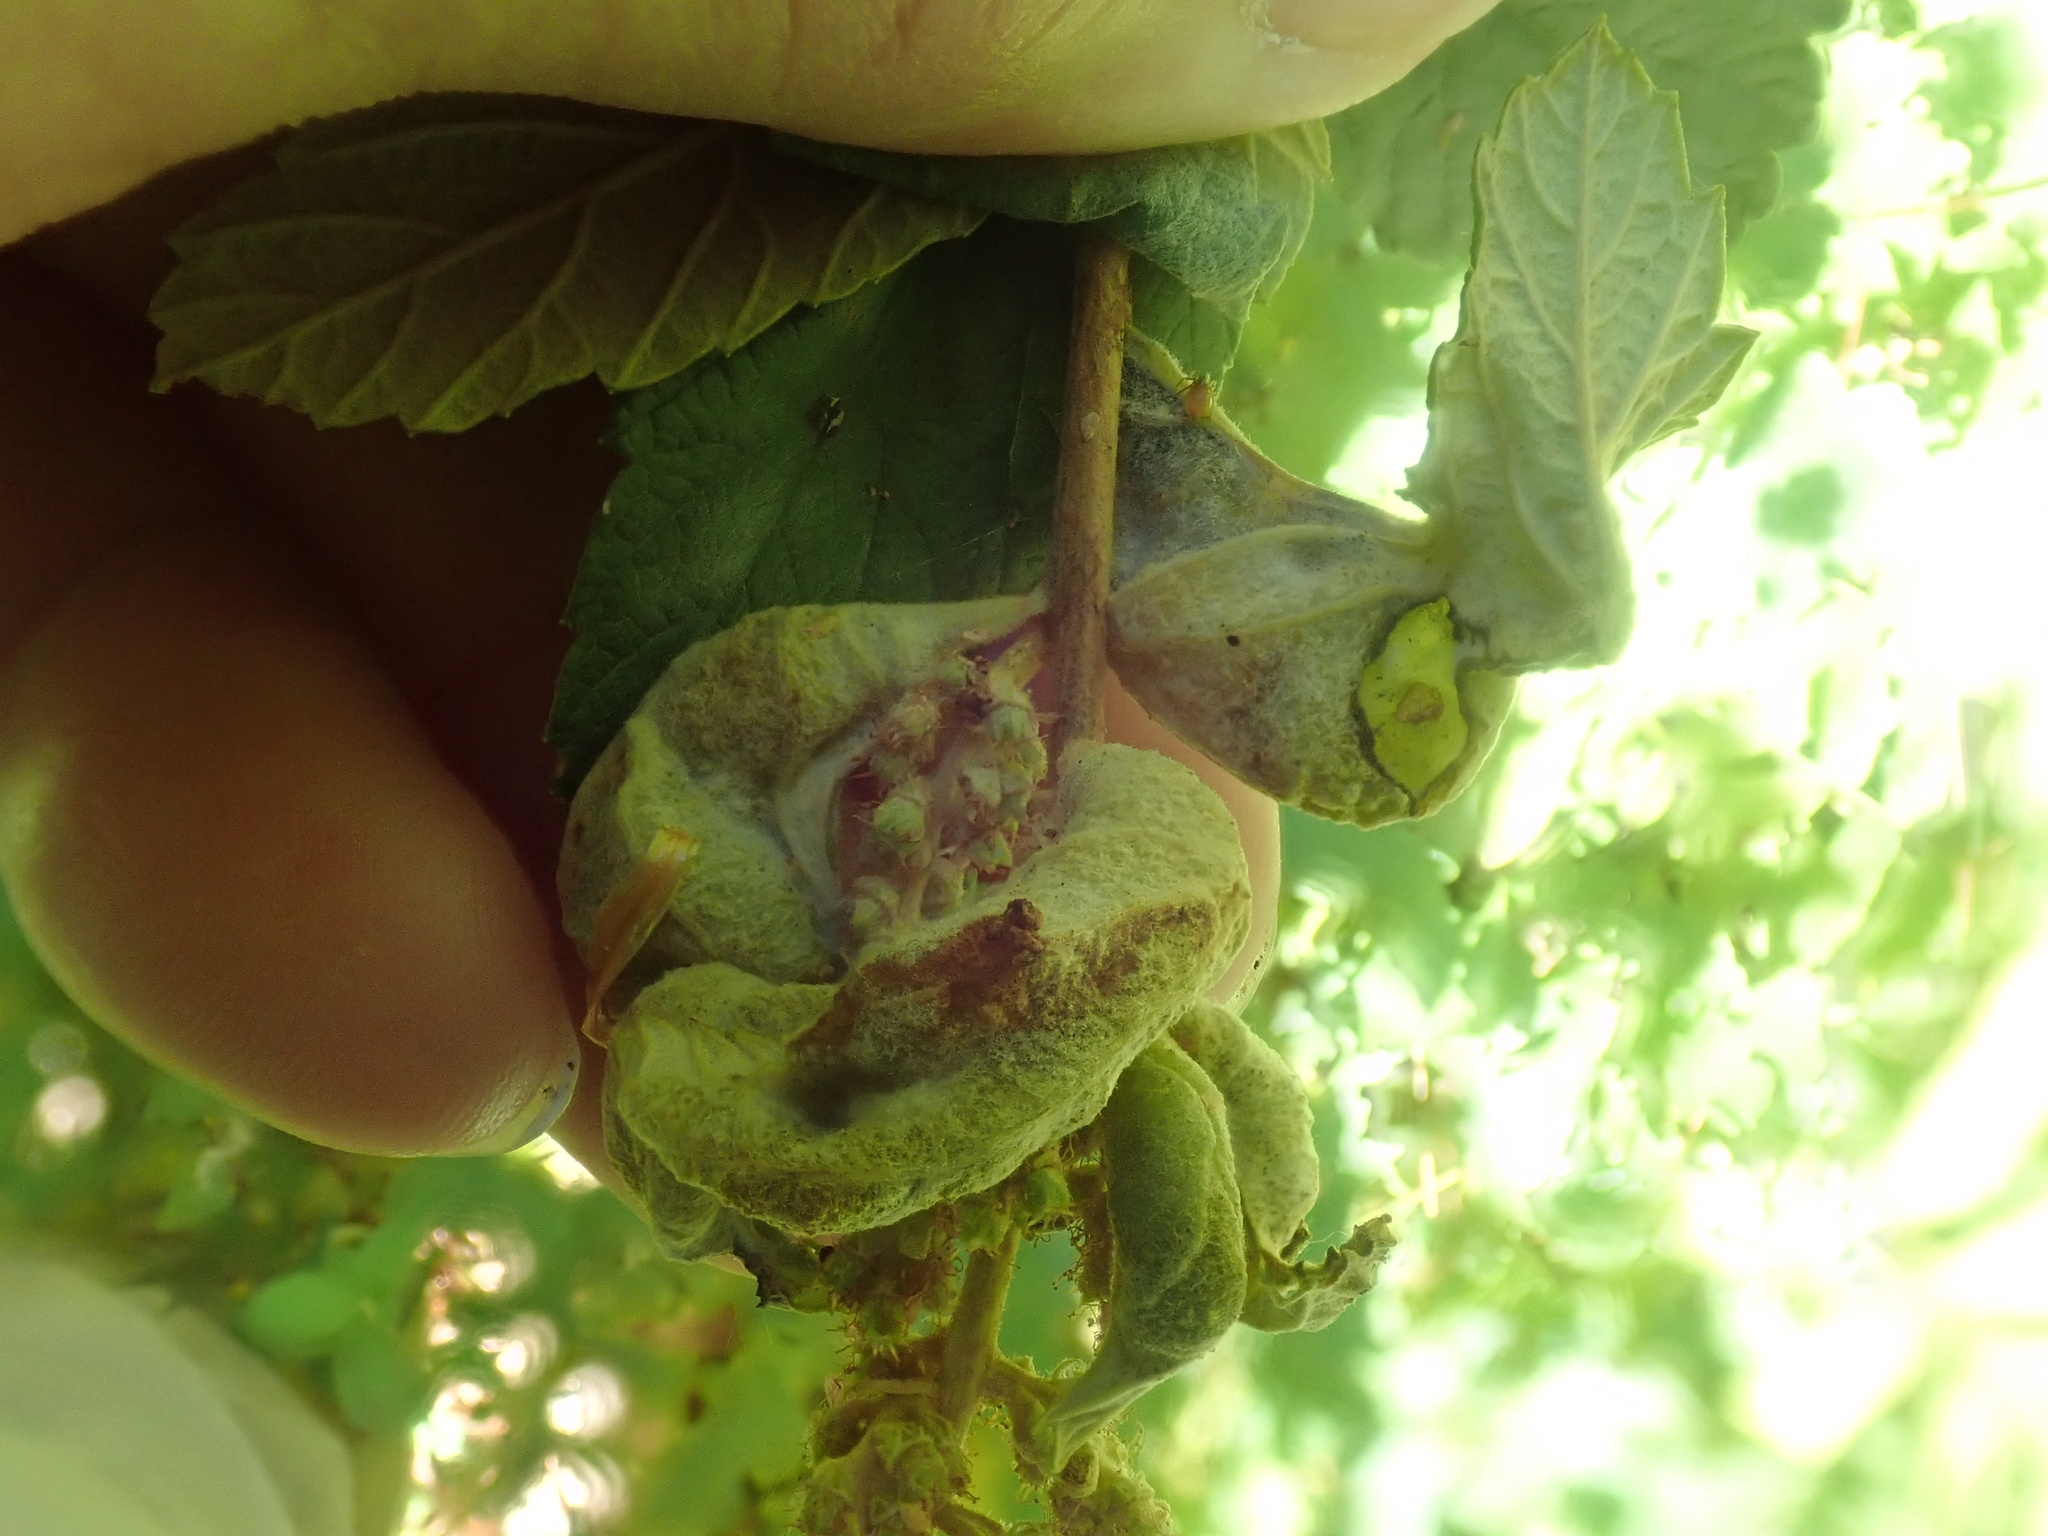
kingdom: Animalia
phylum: Arthropoda
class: Insecta
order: Diptera
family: Cecidomyiidae
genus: Dasineura
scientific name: Dasineura salicifoliae
